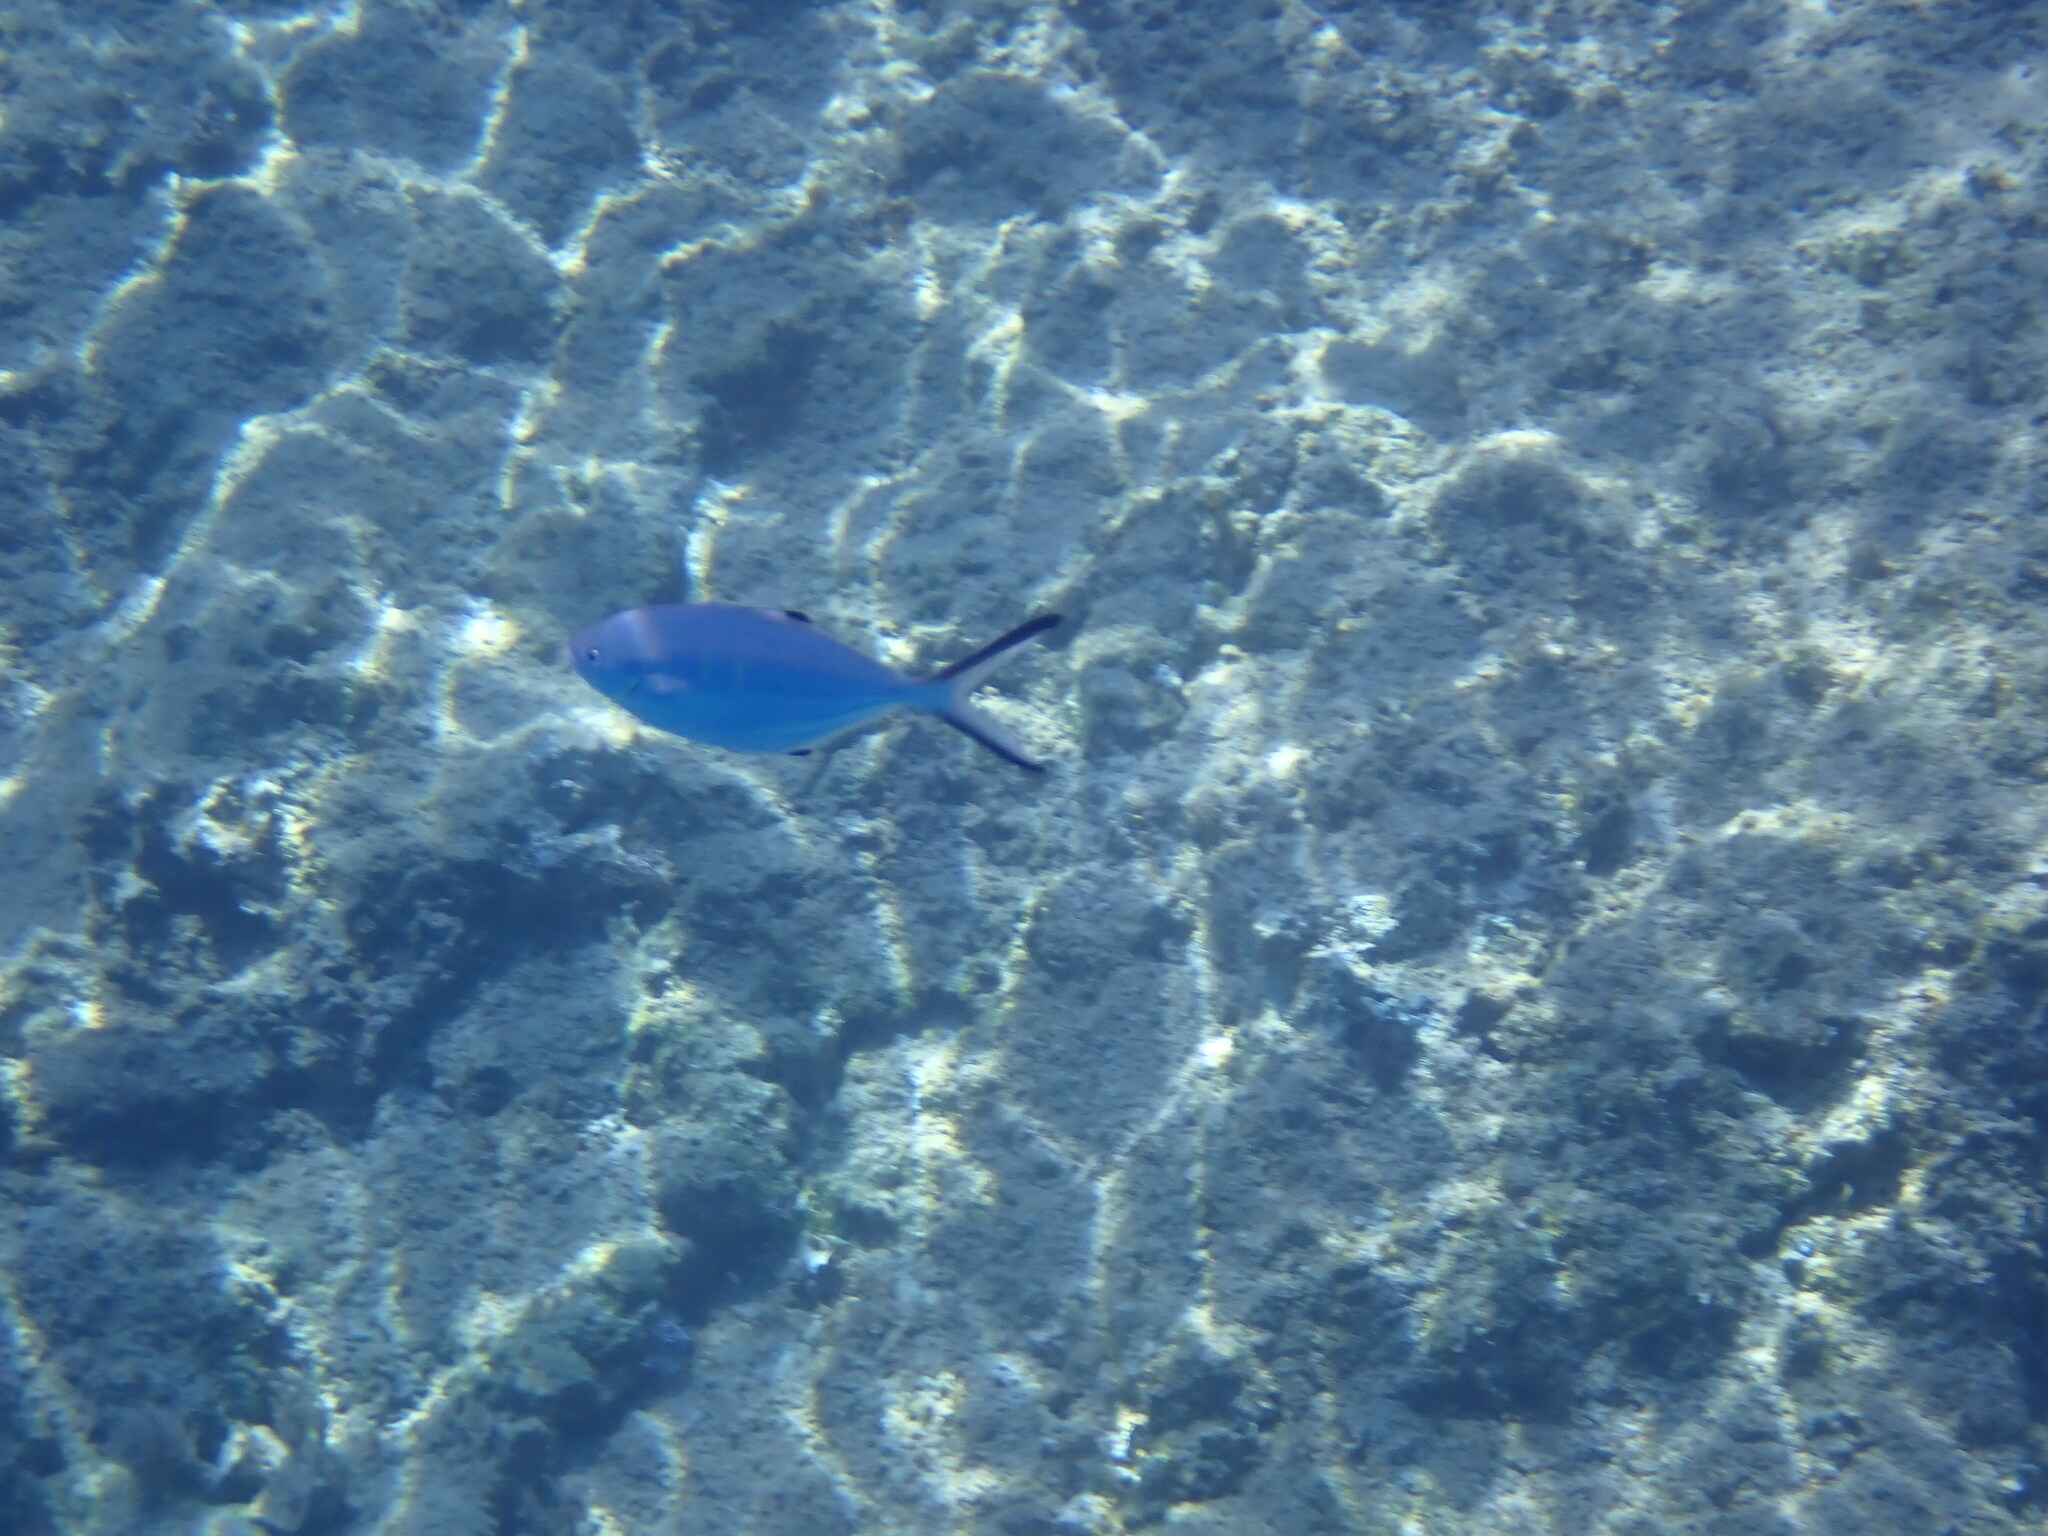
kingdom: Animalia
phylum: Chordata
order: Perciformes
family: Carangidae
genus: Trachinotus
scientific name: Trachinotus ovatus
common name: Pompano
